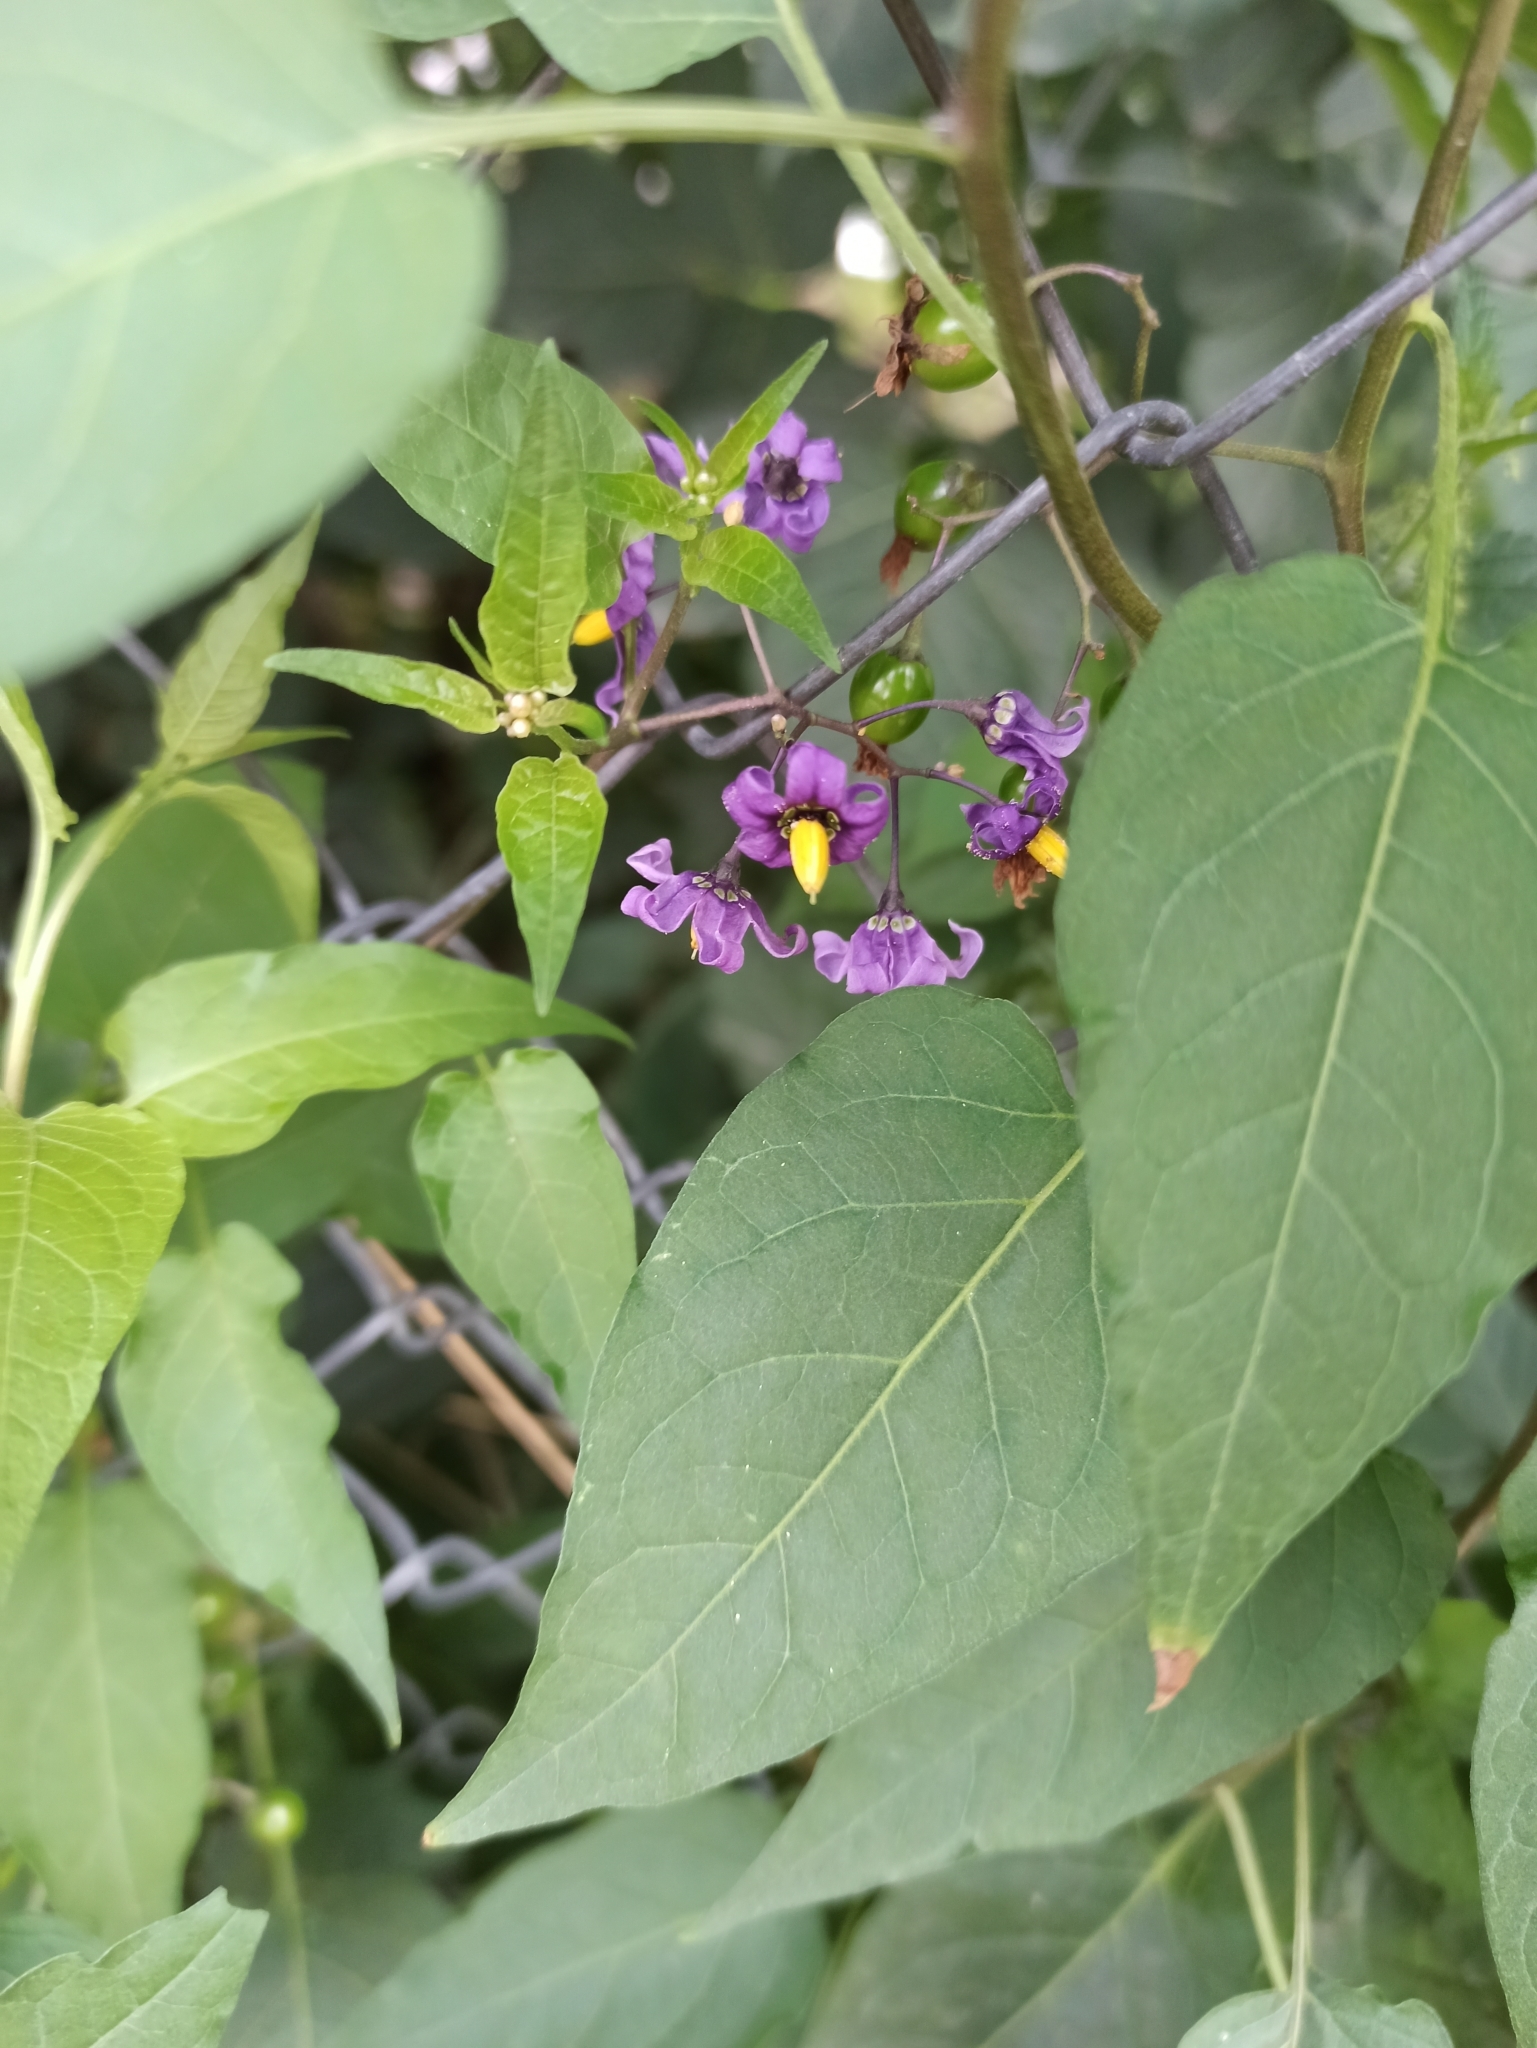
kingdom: Plantae
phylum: Tracheophyta
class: Magnoliopsida
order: Solanales
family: Solanaceae
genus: Solanum
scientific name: Solanum dulcamara
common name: Climbing nightshade
